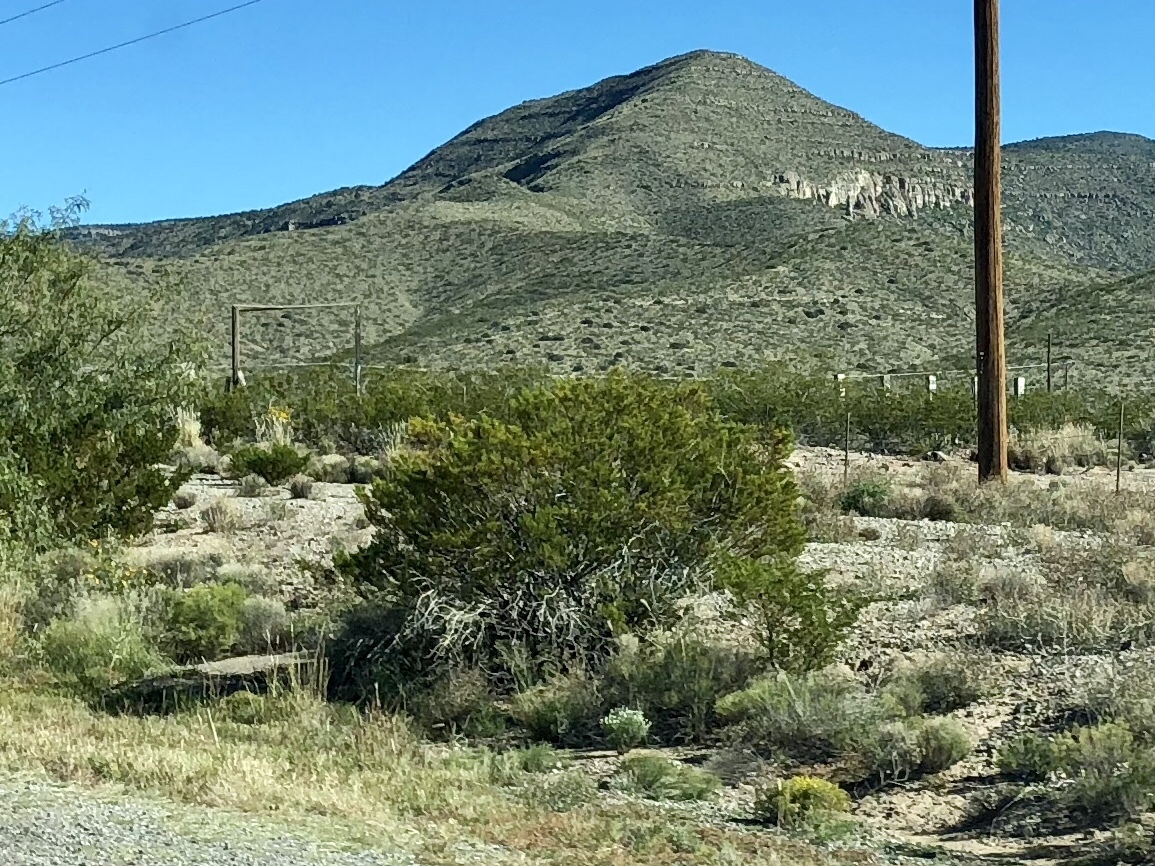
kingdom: Plantae
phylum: Tracheophyta
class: Magnoliopsida
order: Zygophyllales
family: Zygophyllaceae
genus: Larrea
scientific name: Larrea tridentata
